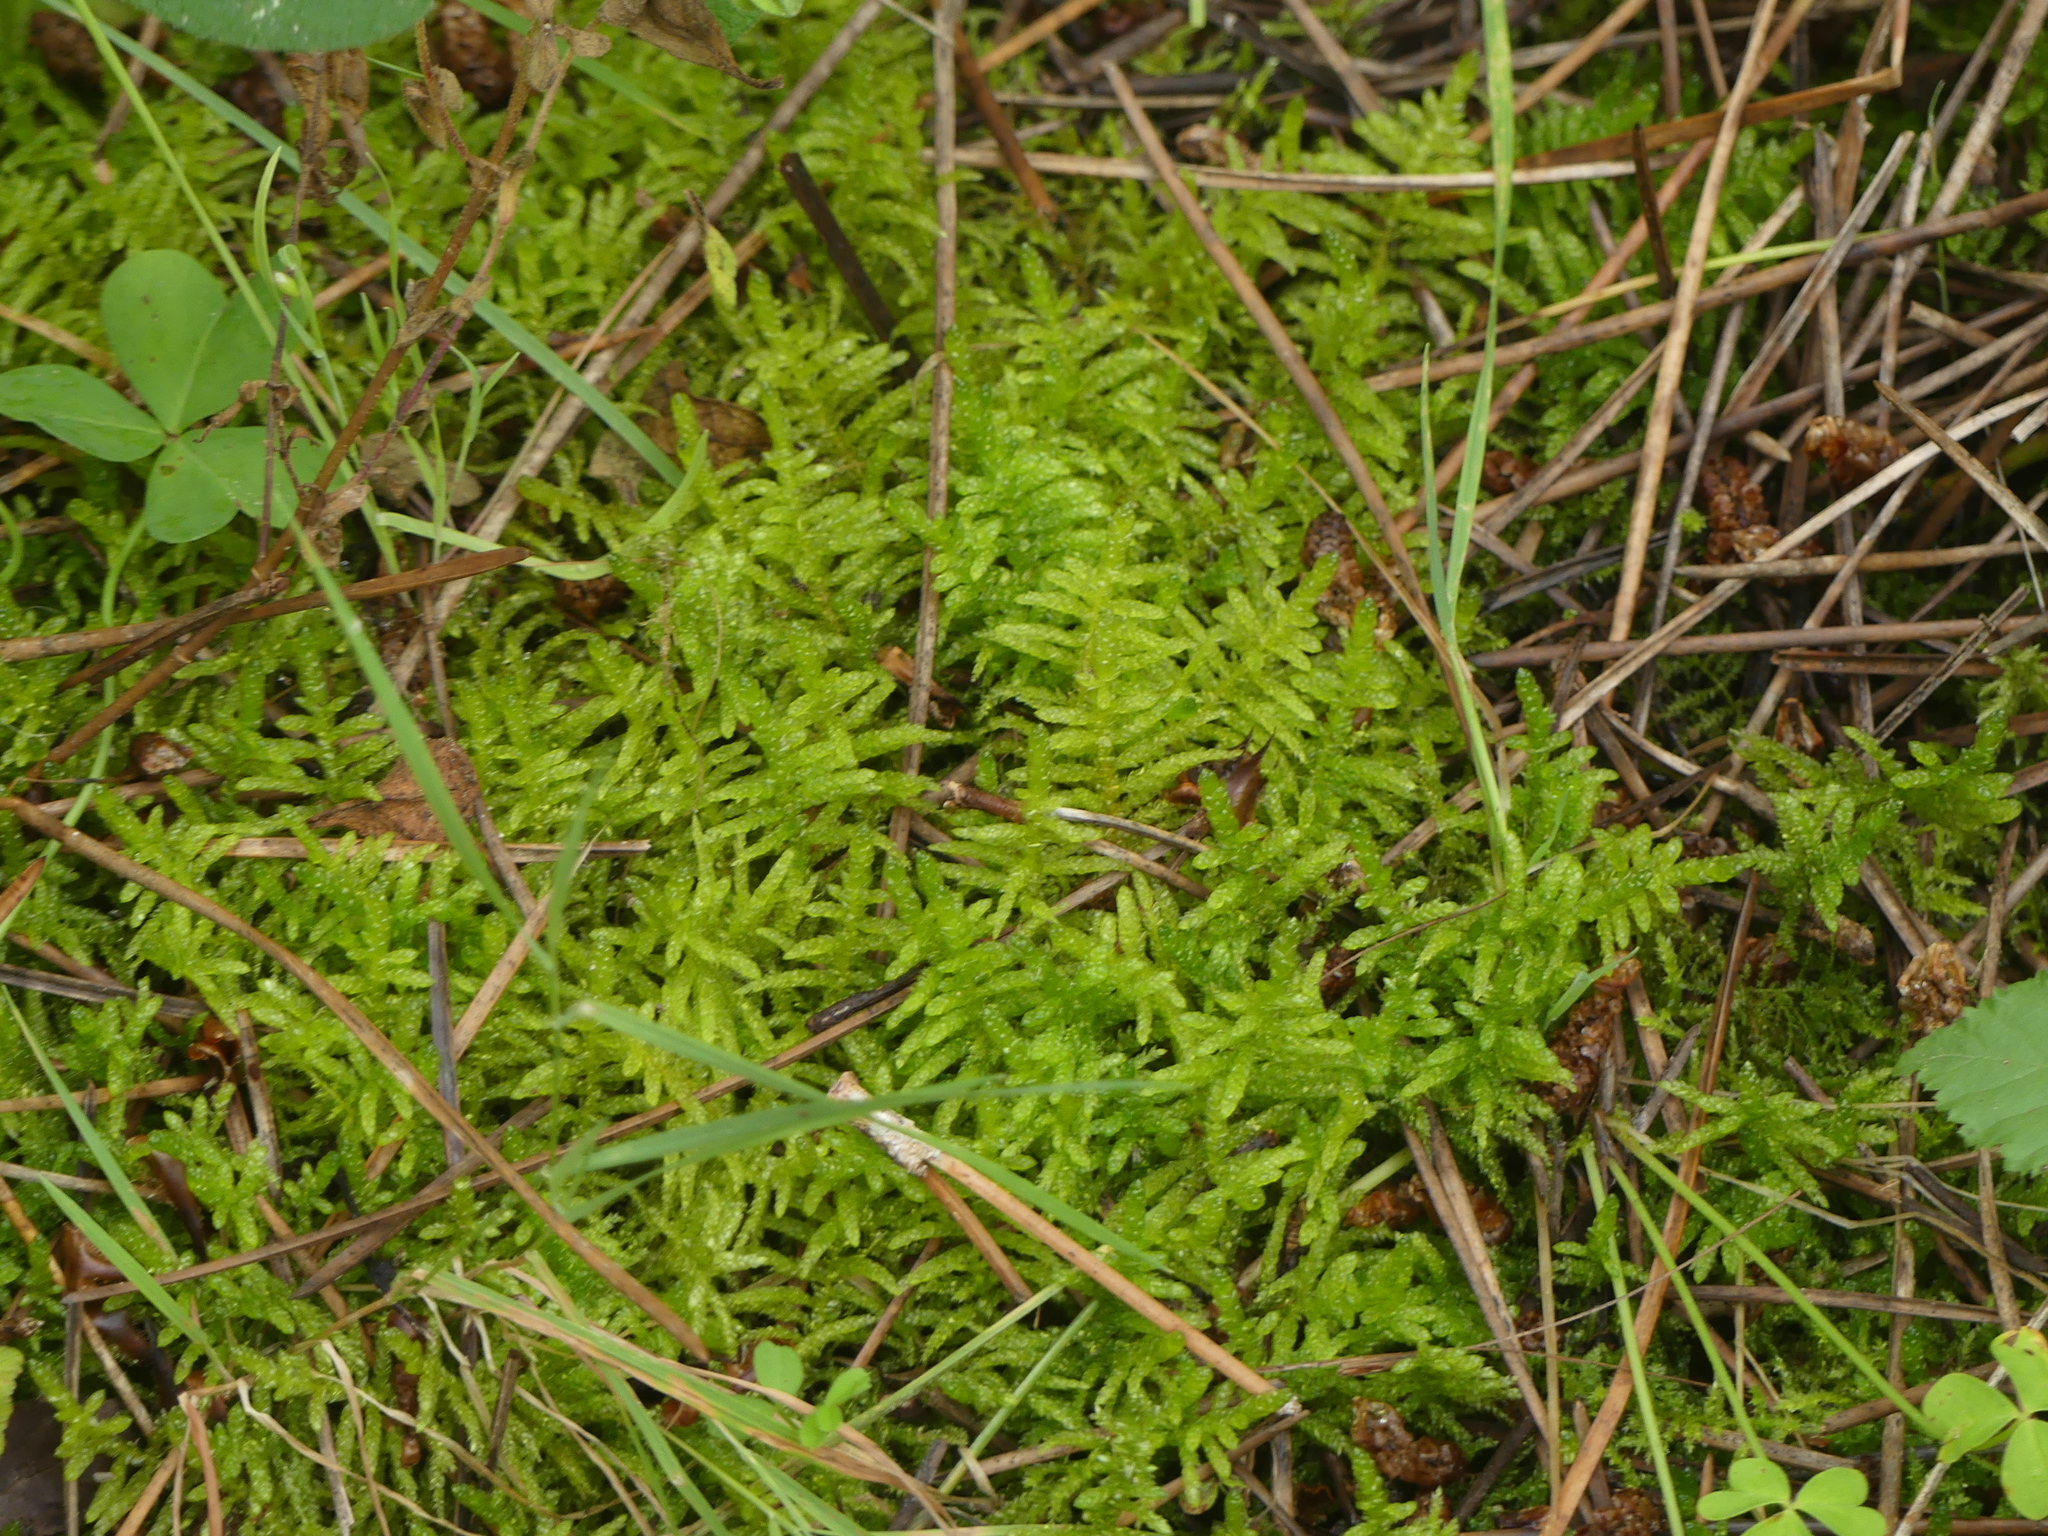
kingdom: Plantae
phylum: Bryophyta
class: Bryopsida
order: Hypnales
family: Brachytheciaceae
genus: Pseudoscleropodium
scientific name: Pseudoscleropodium purum
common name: Neat feather-moss
